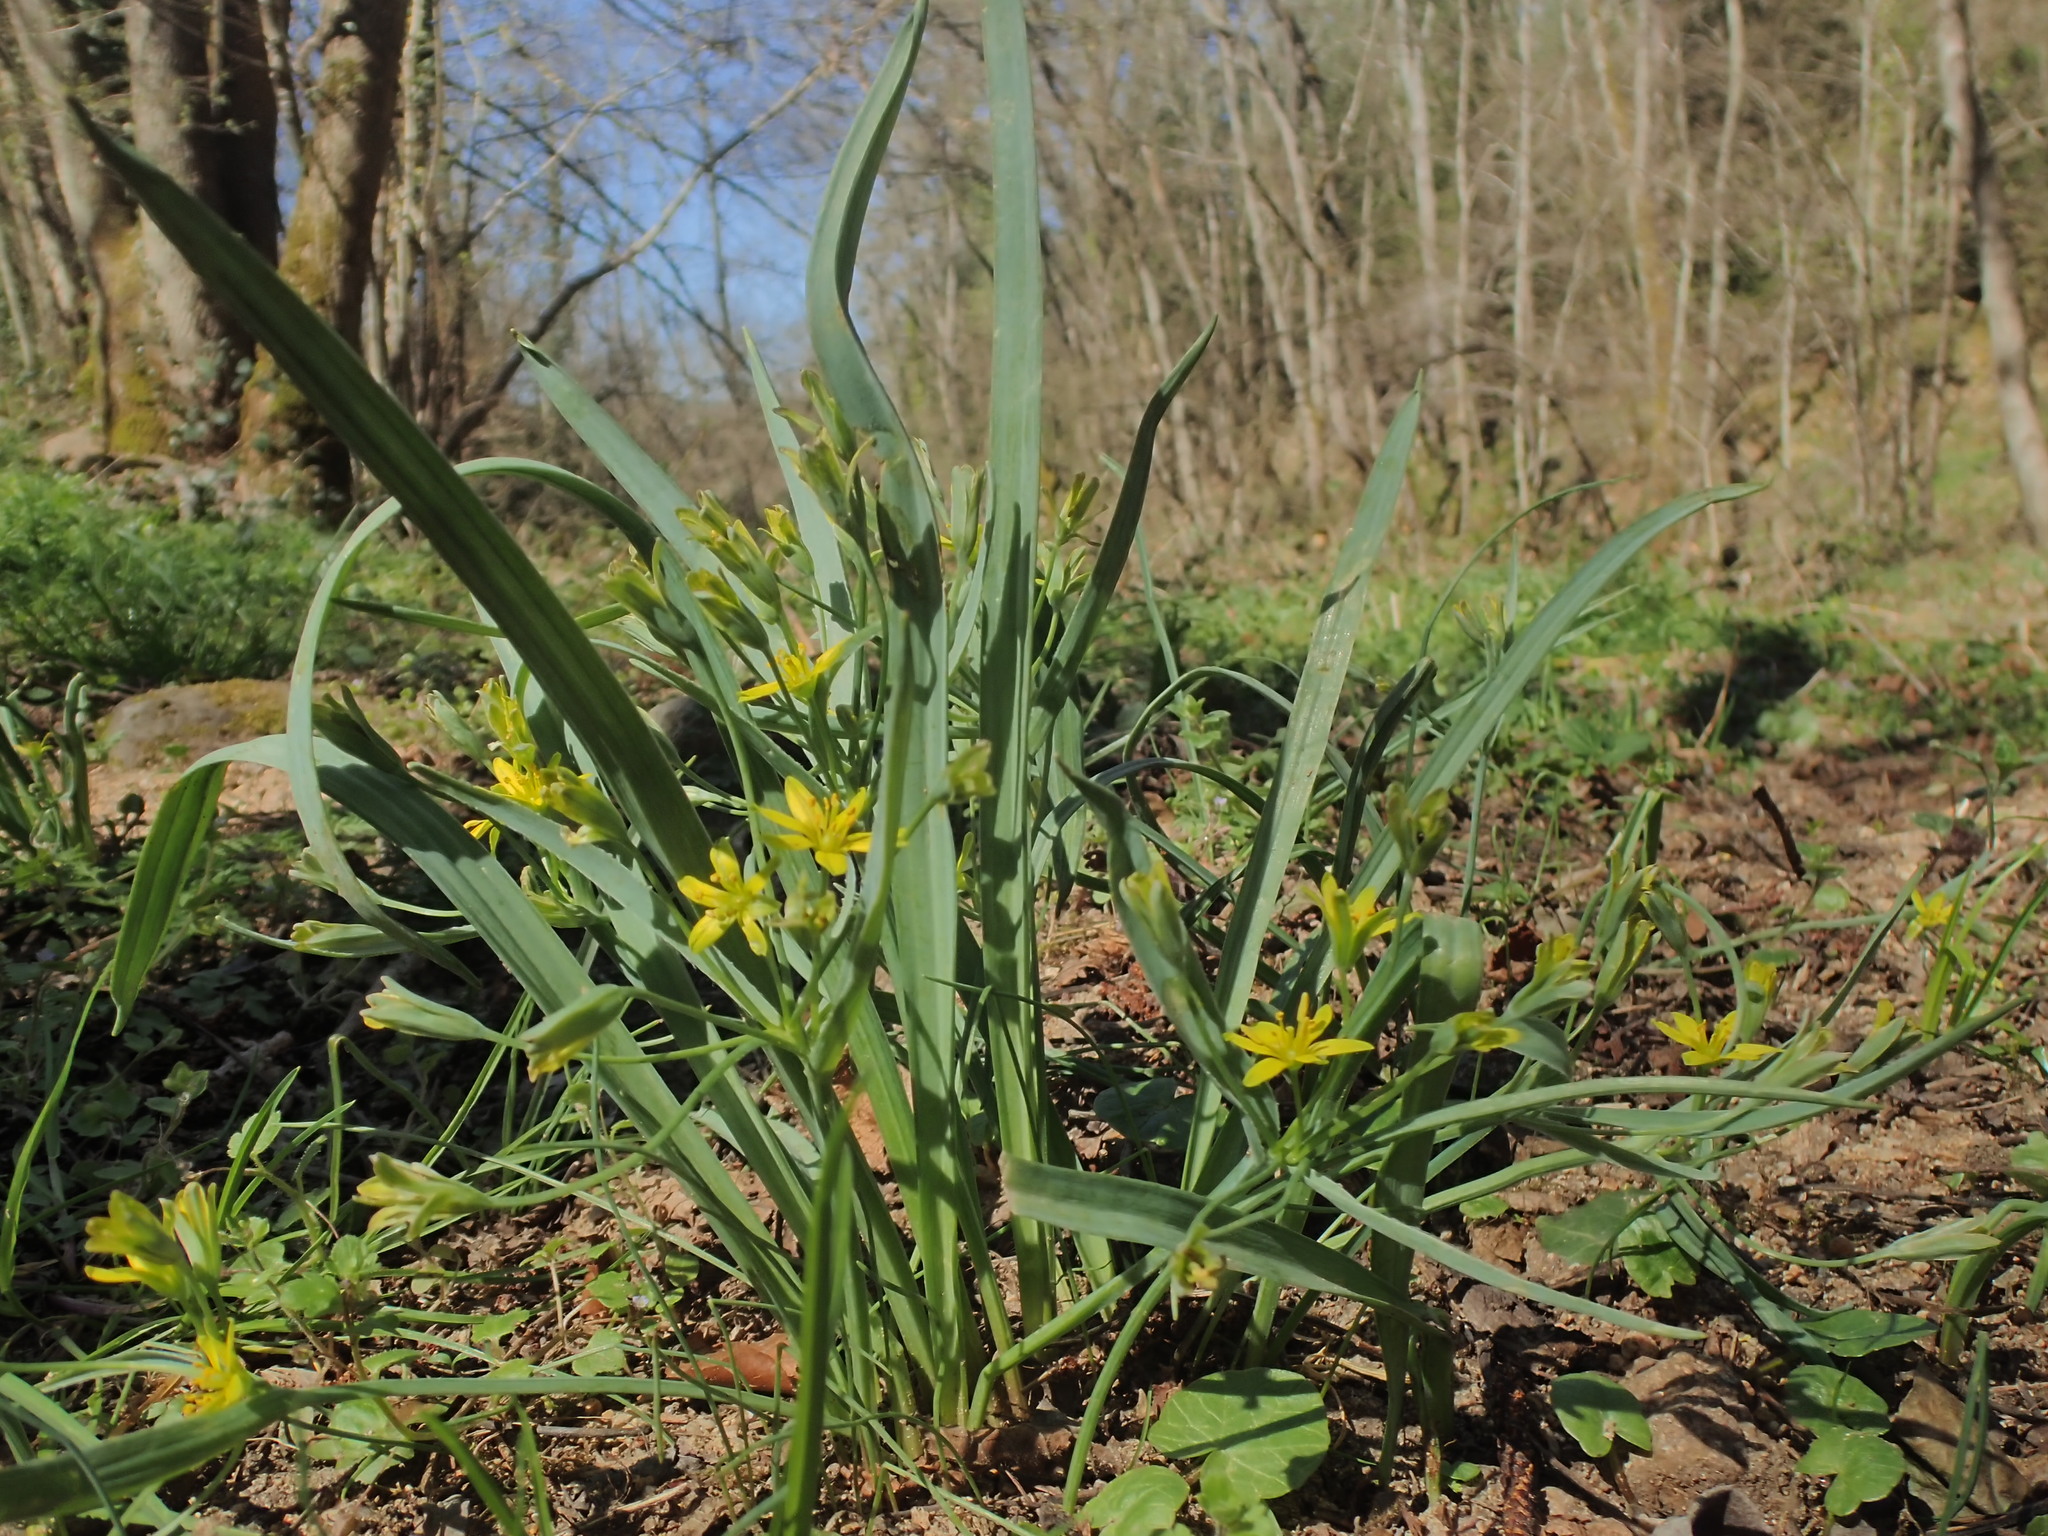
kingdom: Plantae
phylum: Tracheophyta
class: Liliopsida
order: Liliales
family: Liliaceae
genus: Gagea
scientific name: Gagea lutea
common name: Yellow star-of-bethlehem
